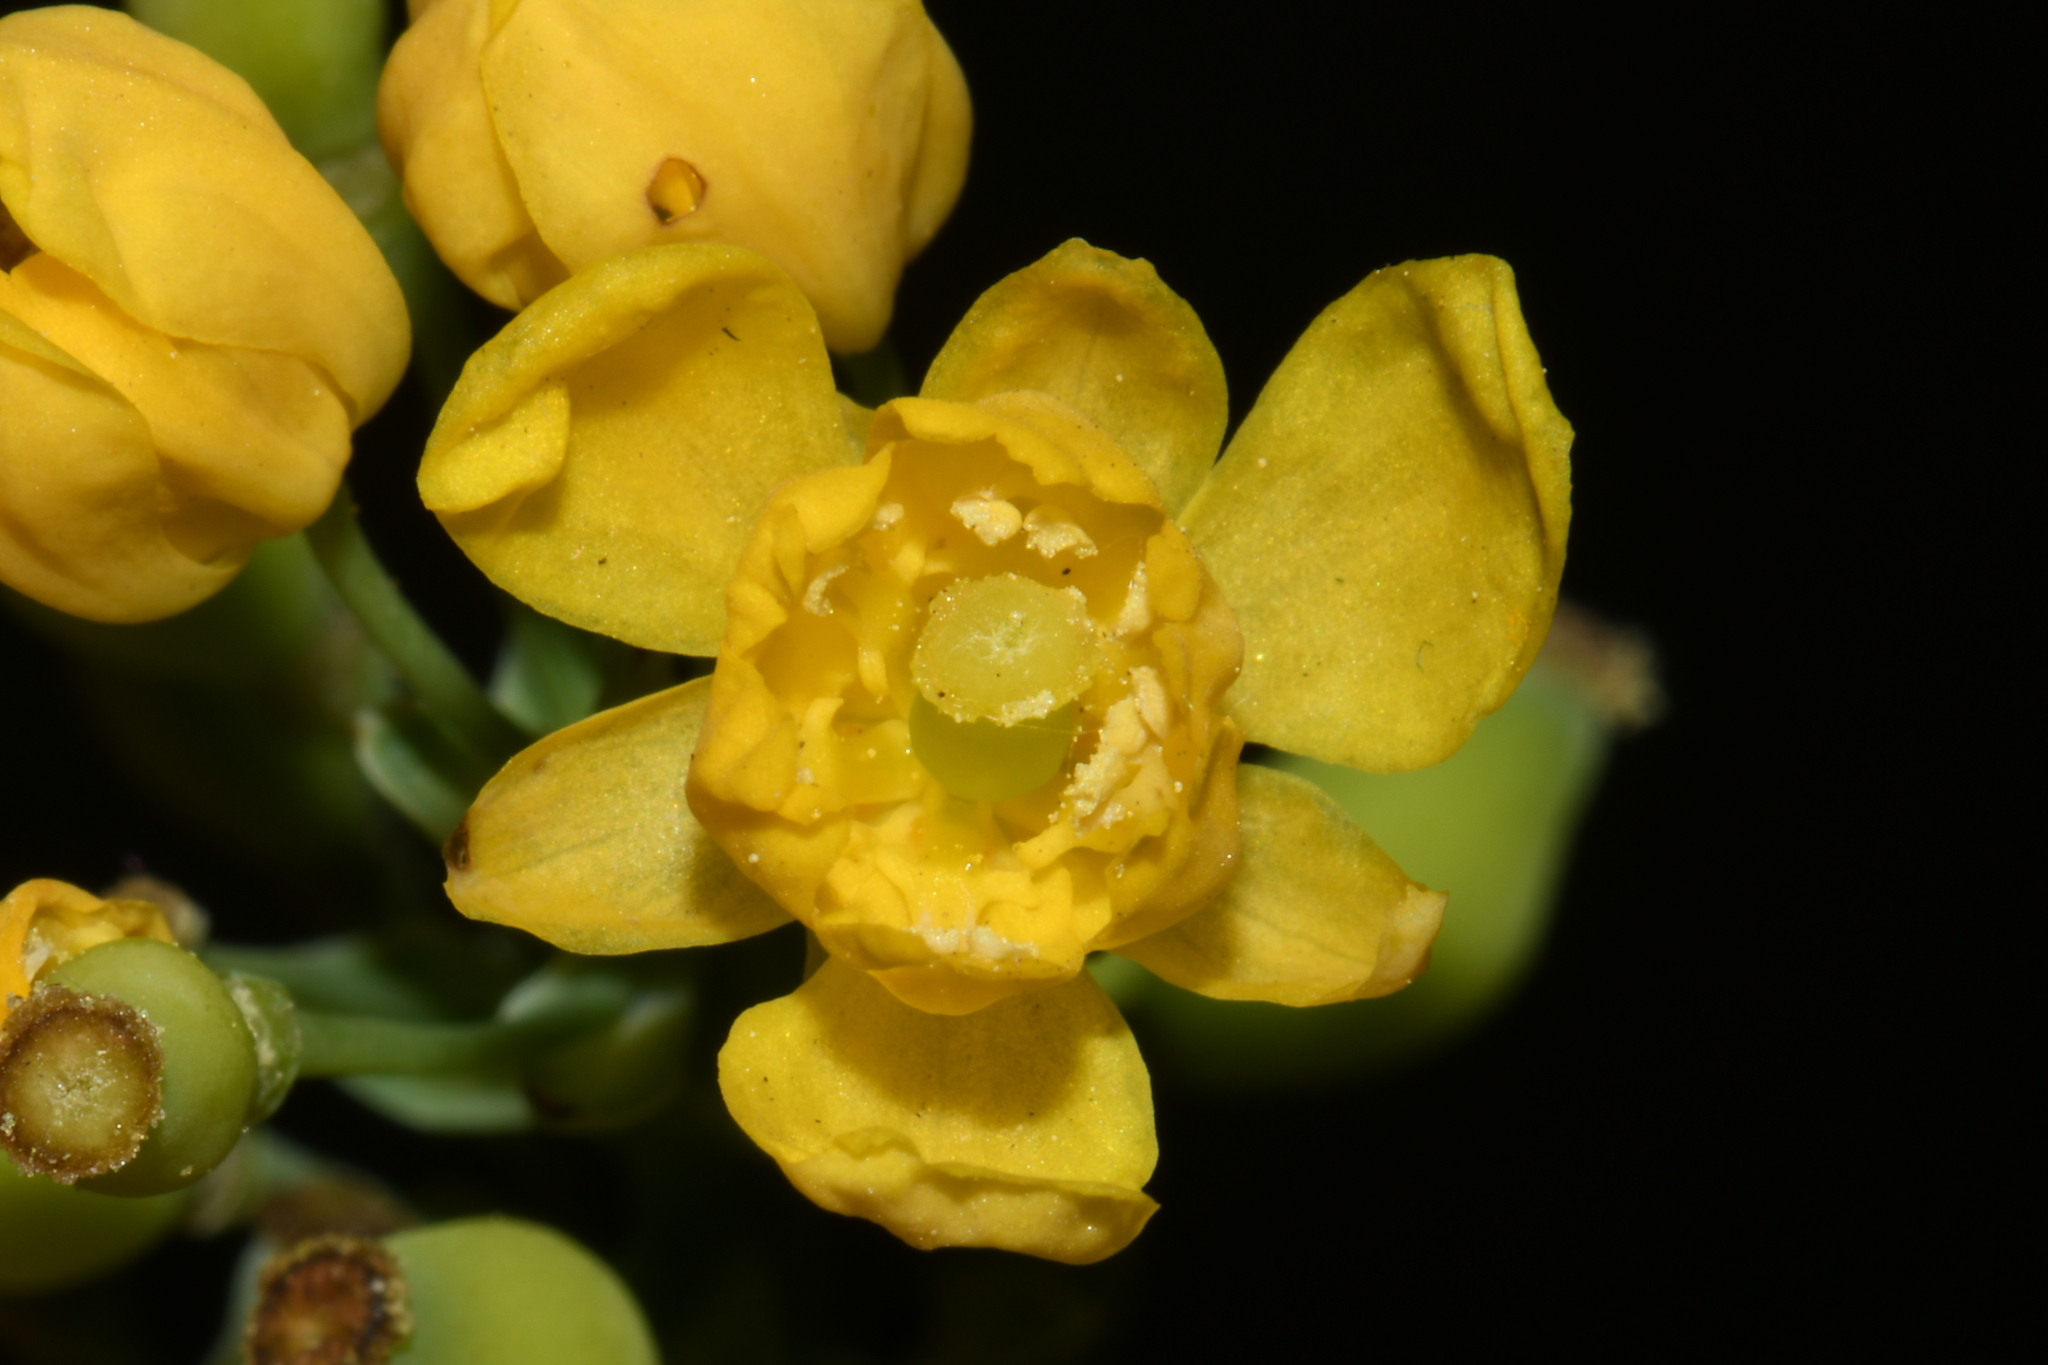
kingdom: Plantae
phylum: Tracheophyta
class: Magnoliopsida
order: Ranunculales
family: Berberidaceae
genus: Mahonia
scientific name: Mahonia repens
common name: Creeping oregon-grape
